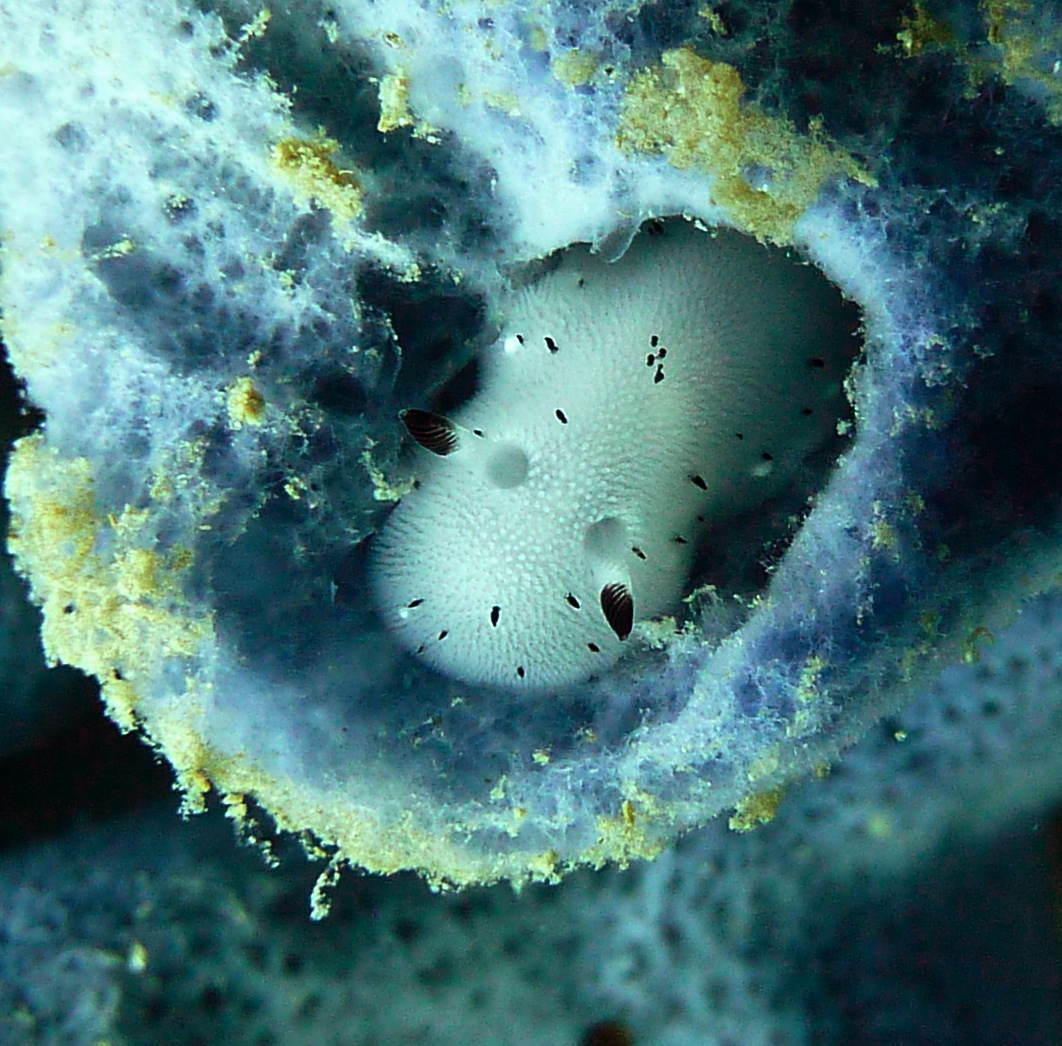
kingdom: Animalia
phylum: Mollusca
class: Gastropoda
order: Nudibranchia
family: Discodorididae
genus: Jorunna
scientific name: Jorunna funebris
